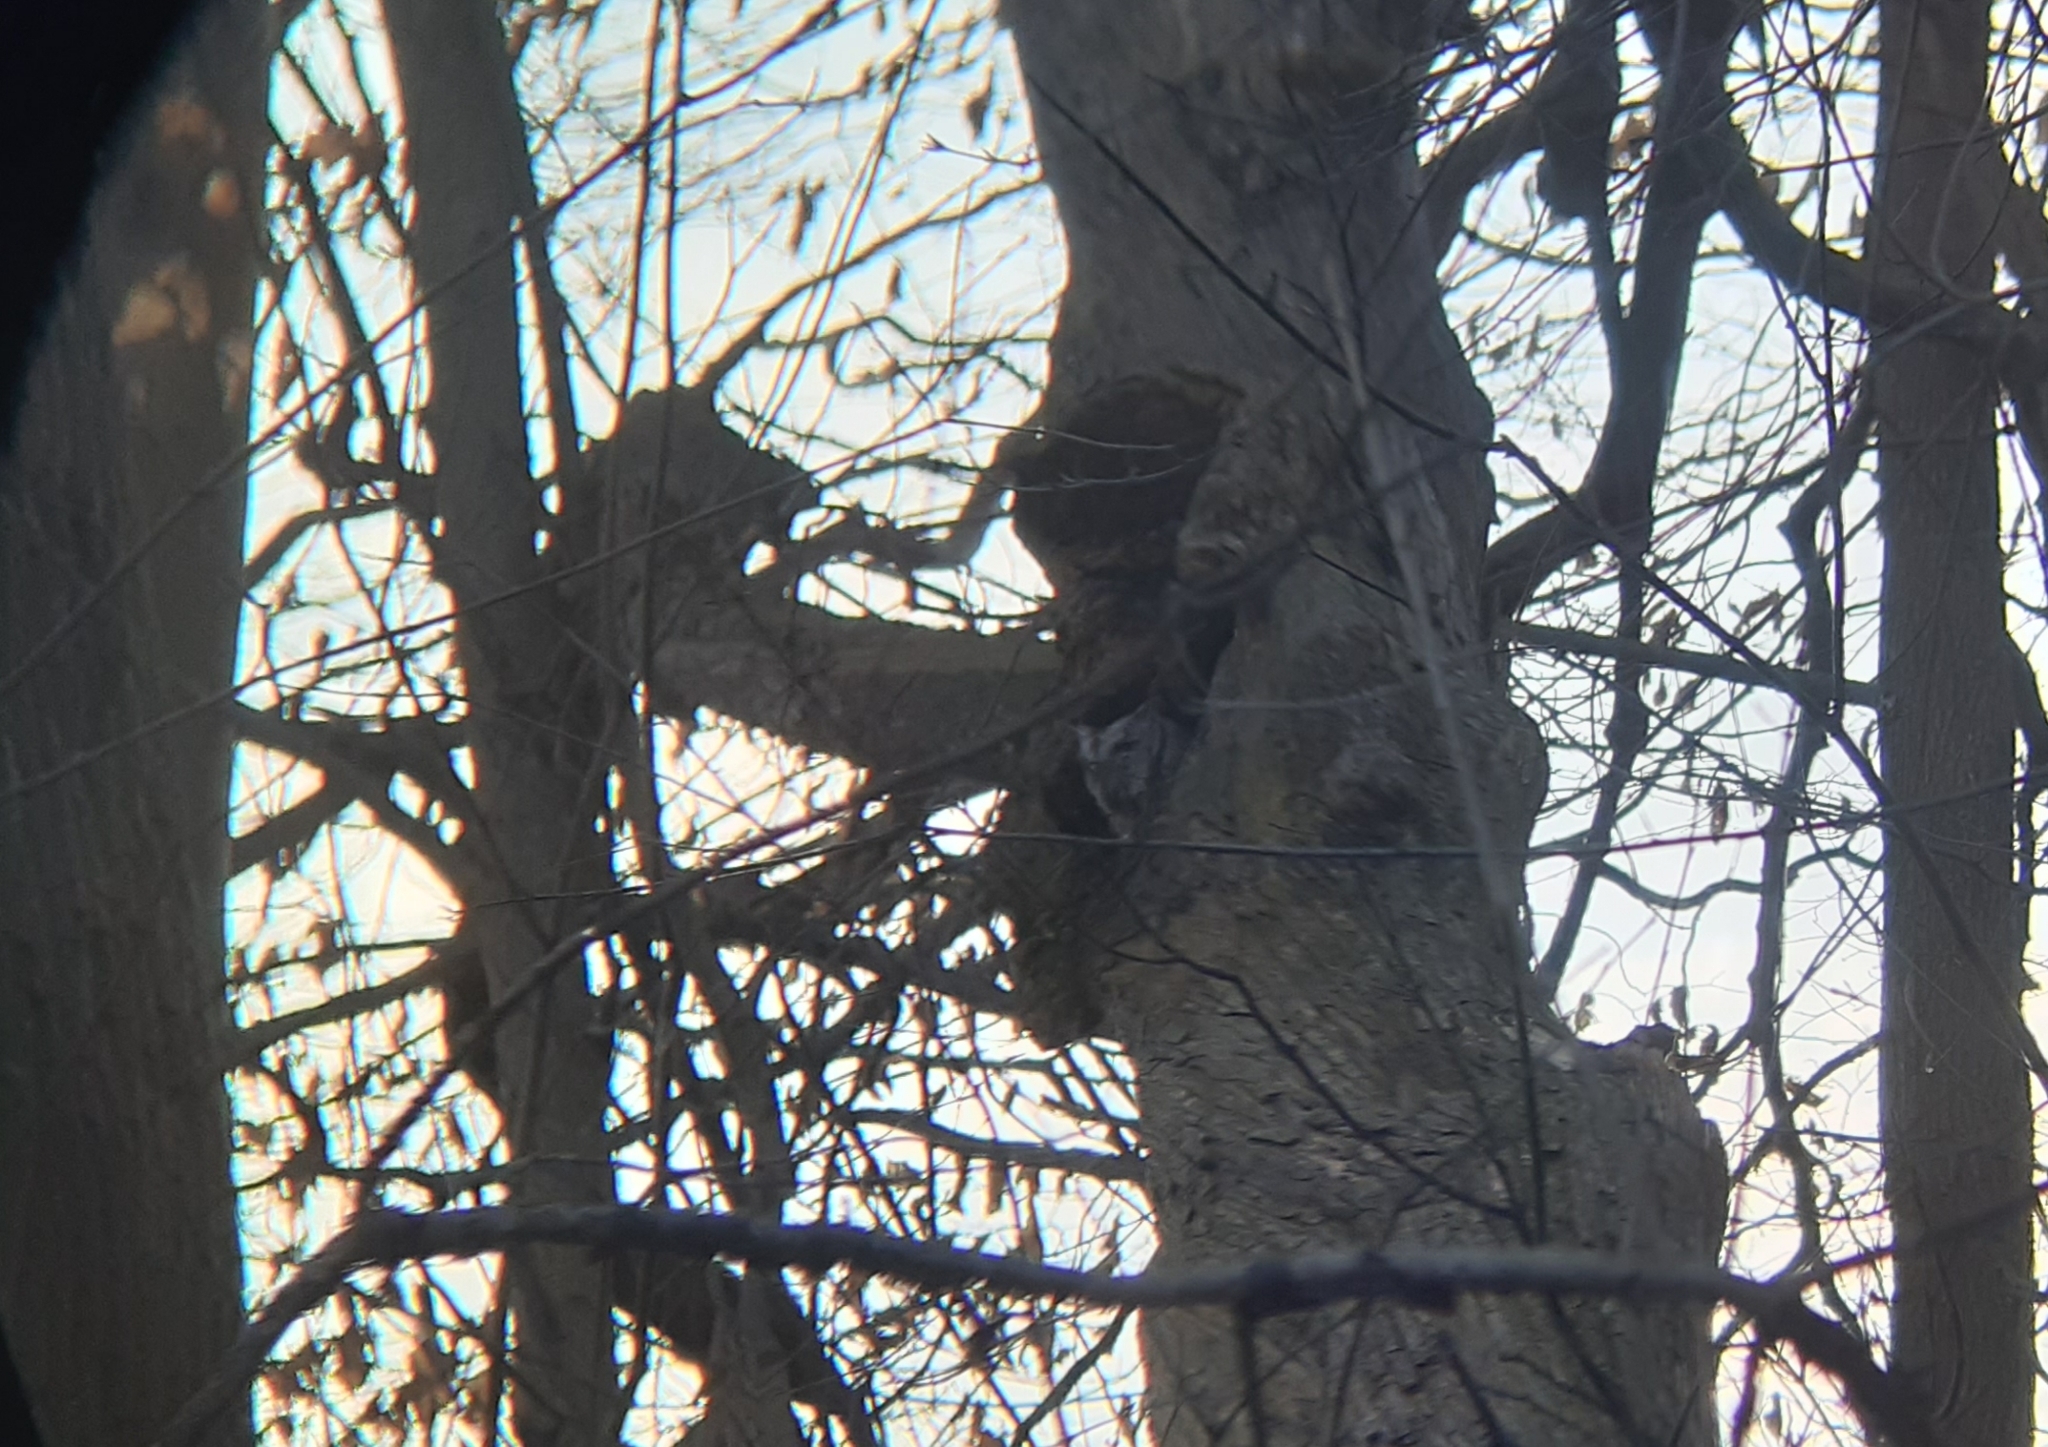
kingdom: Animalia
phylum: Chordata
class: Aves
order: Strigiformes
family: Strigidae
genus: Megascops
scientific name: Megascops asio
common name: Eastern screech-owl
